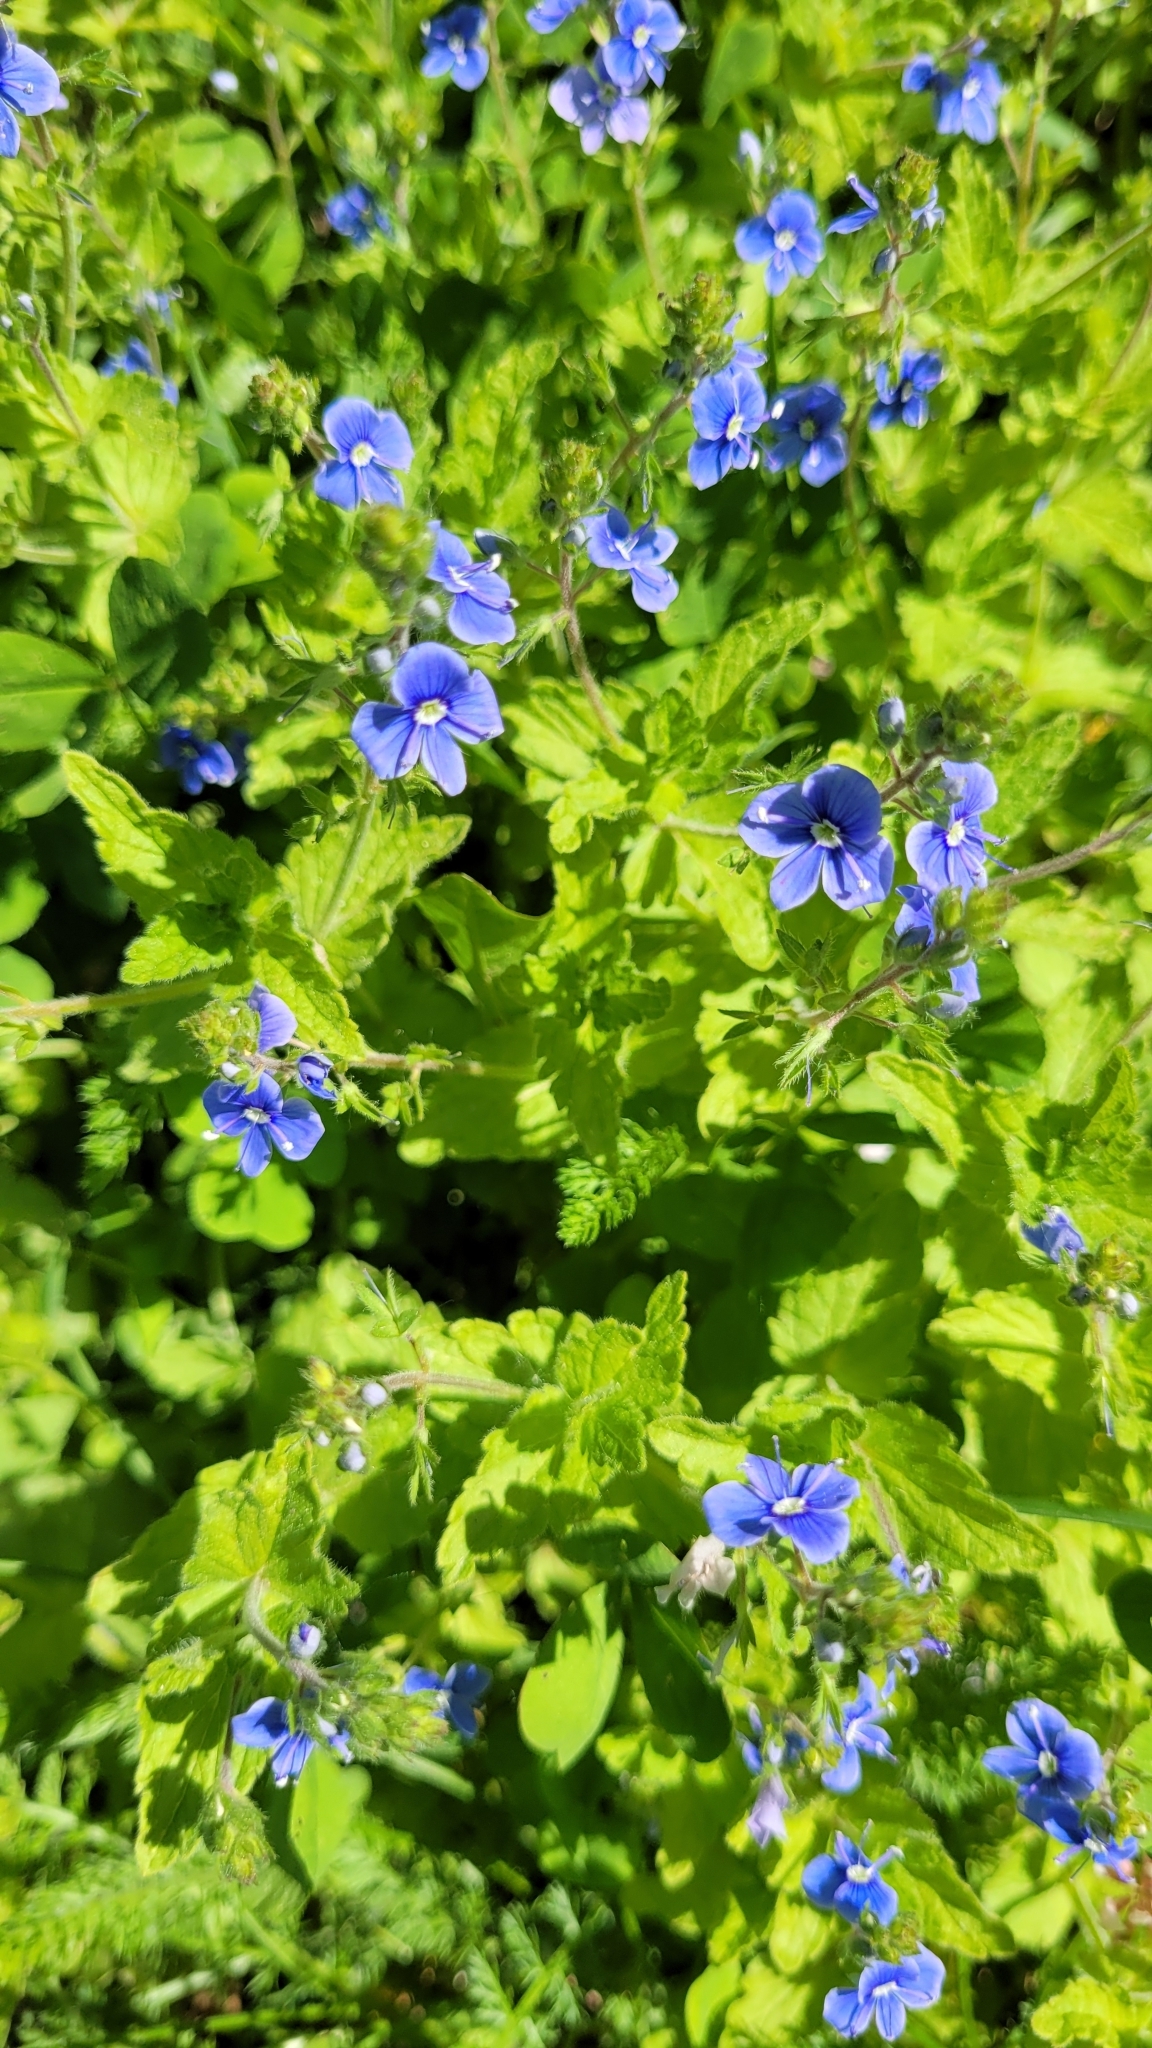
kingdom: Plantae
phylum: Tracheophyta
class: Magnoliopsida
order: Lamiales
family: Plantaginaceae
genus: Veronica
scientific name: Veronica chamaedrys
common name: Germander speedwell
